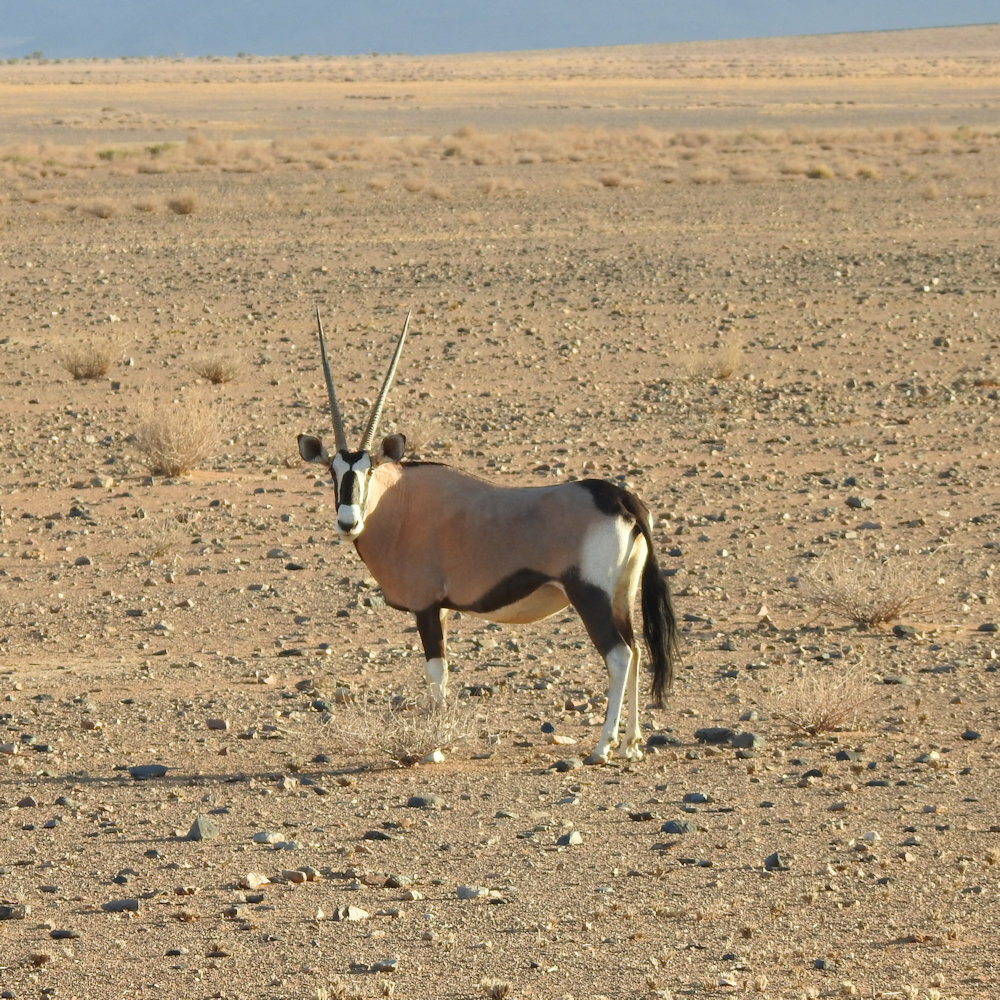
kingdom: Animalia
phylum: Chordata
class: Mammalia
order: Artiodactyla
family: Bovidae
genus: Oryx
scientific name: Oryx gazella
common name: Gemsbok
